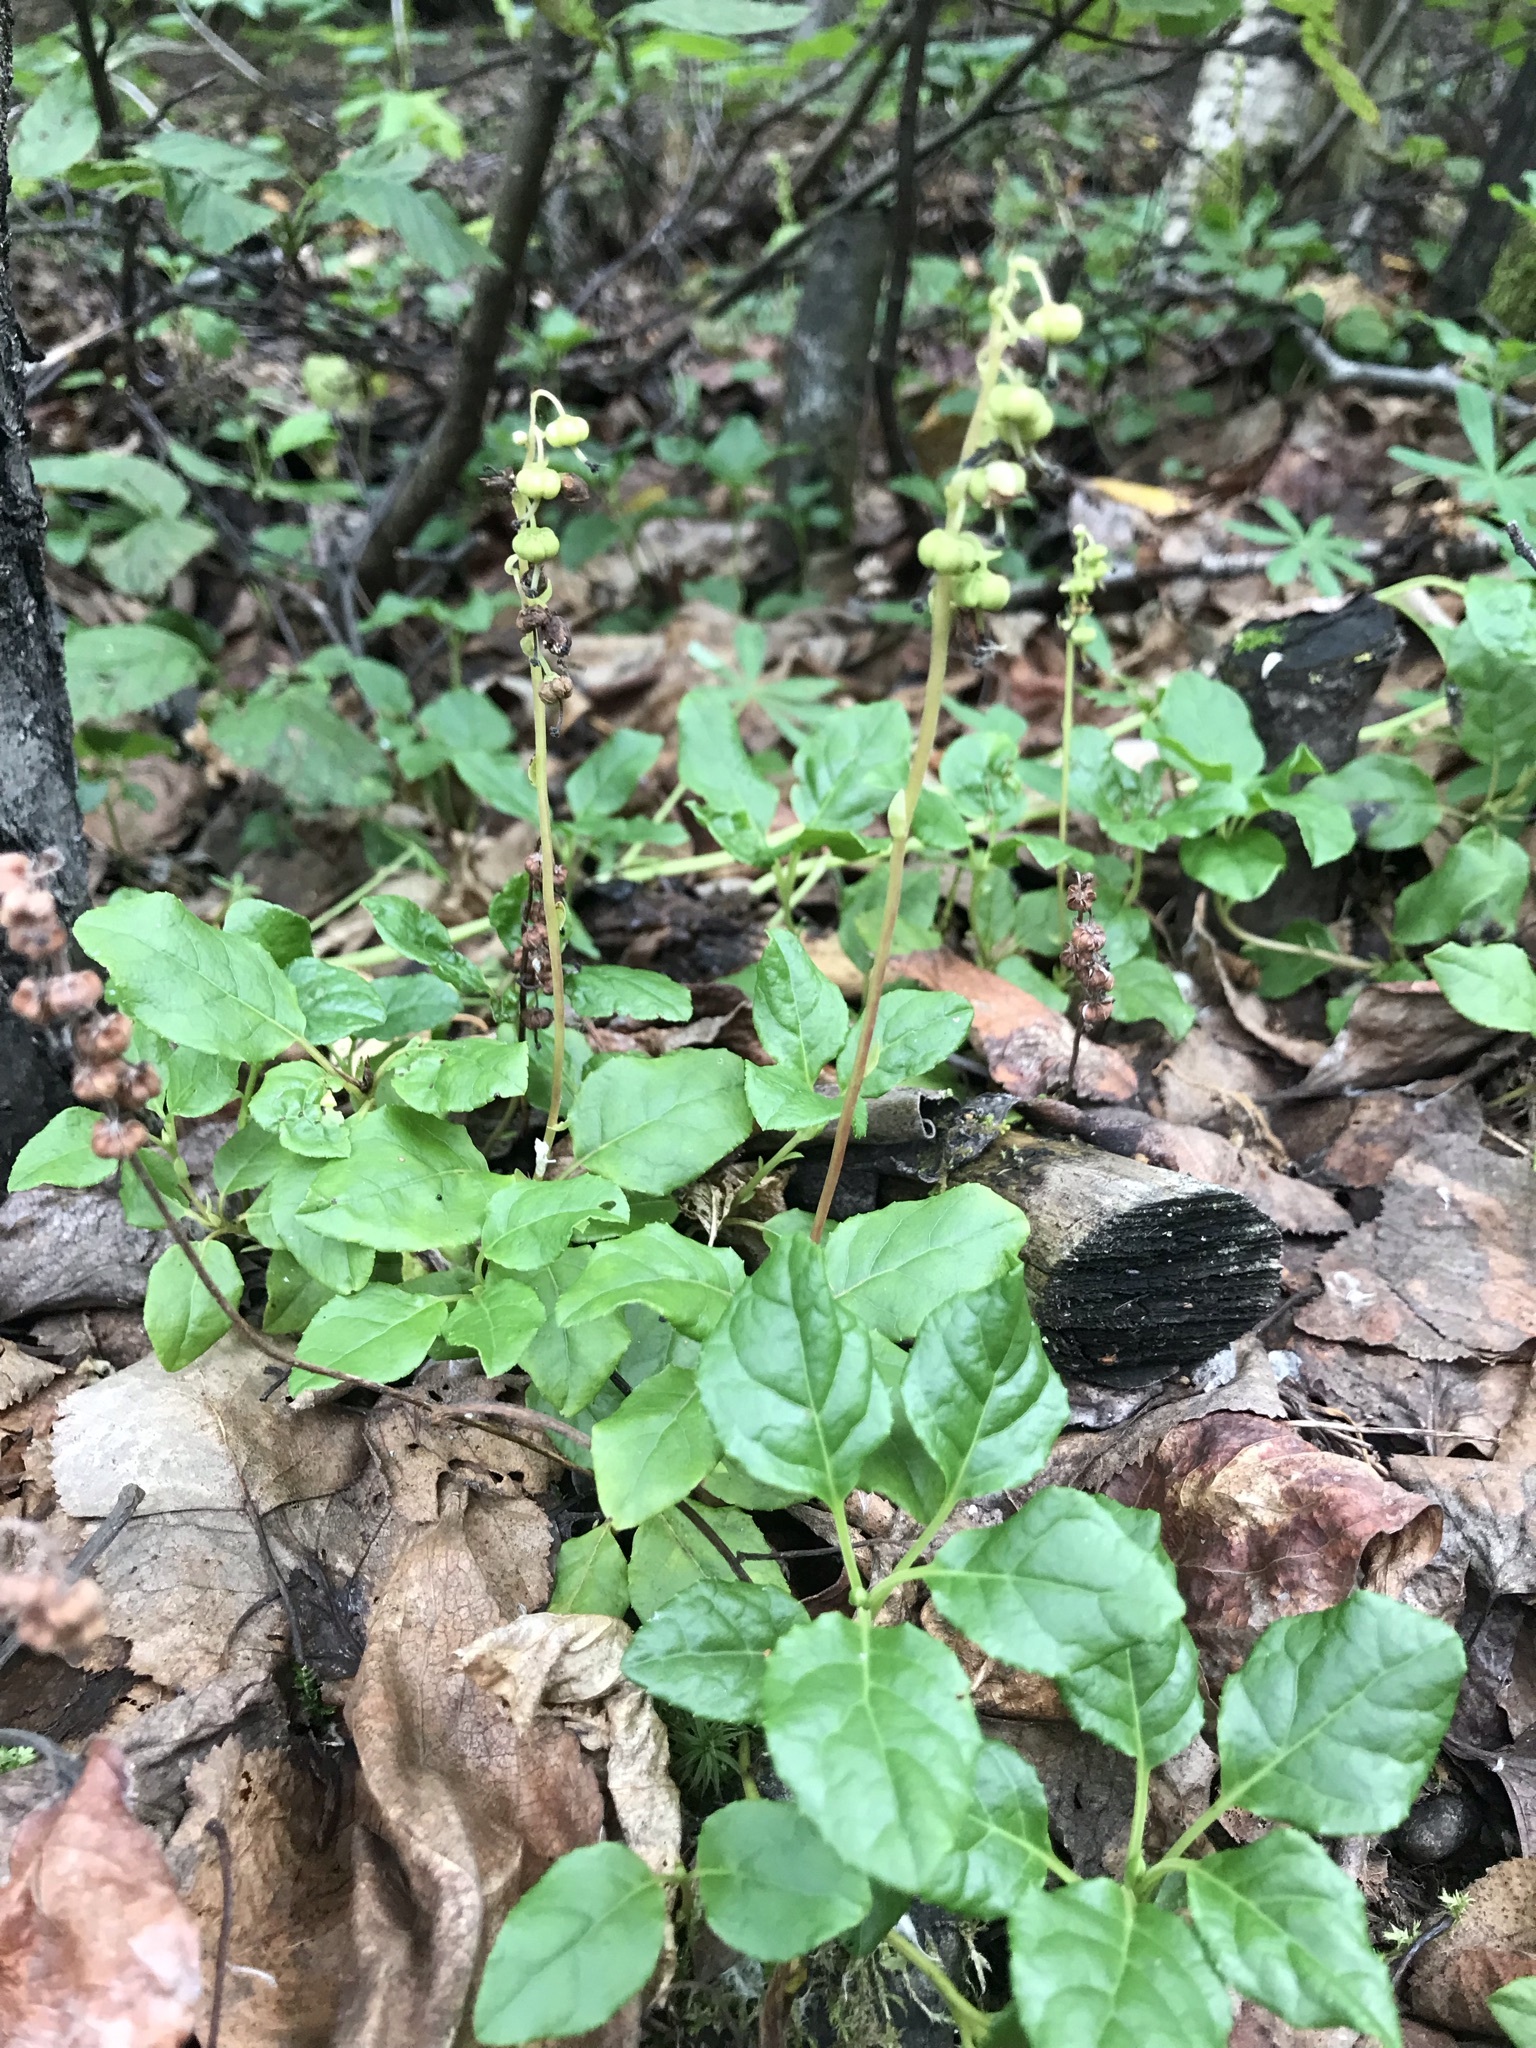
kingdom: Plantae
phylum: Tracheophyta
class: Magnoliopsida
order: Ericales
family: Ericaceae
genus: Orthilia
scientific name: Orthilia secunda
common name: One-sided orthilia
